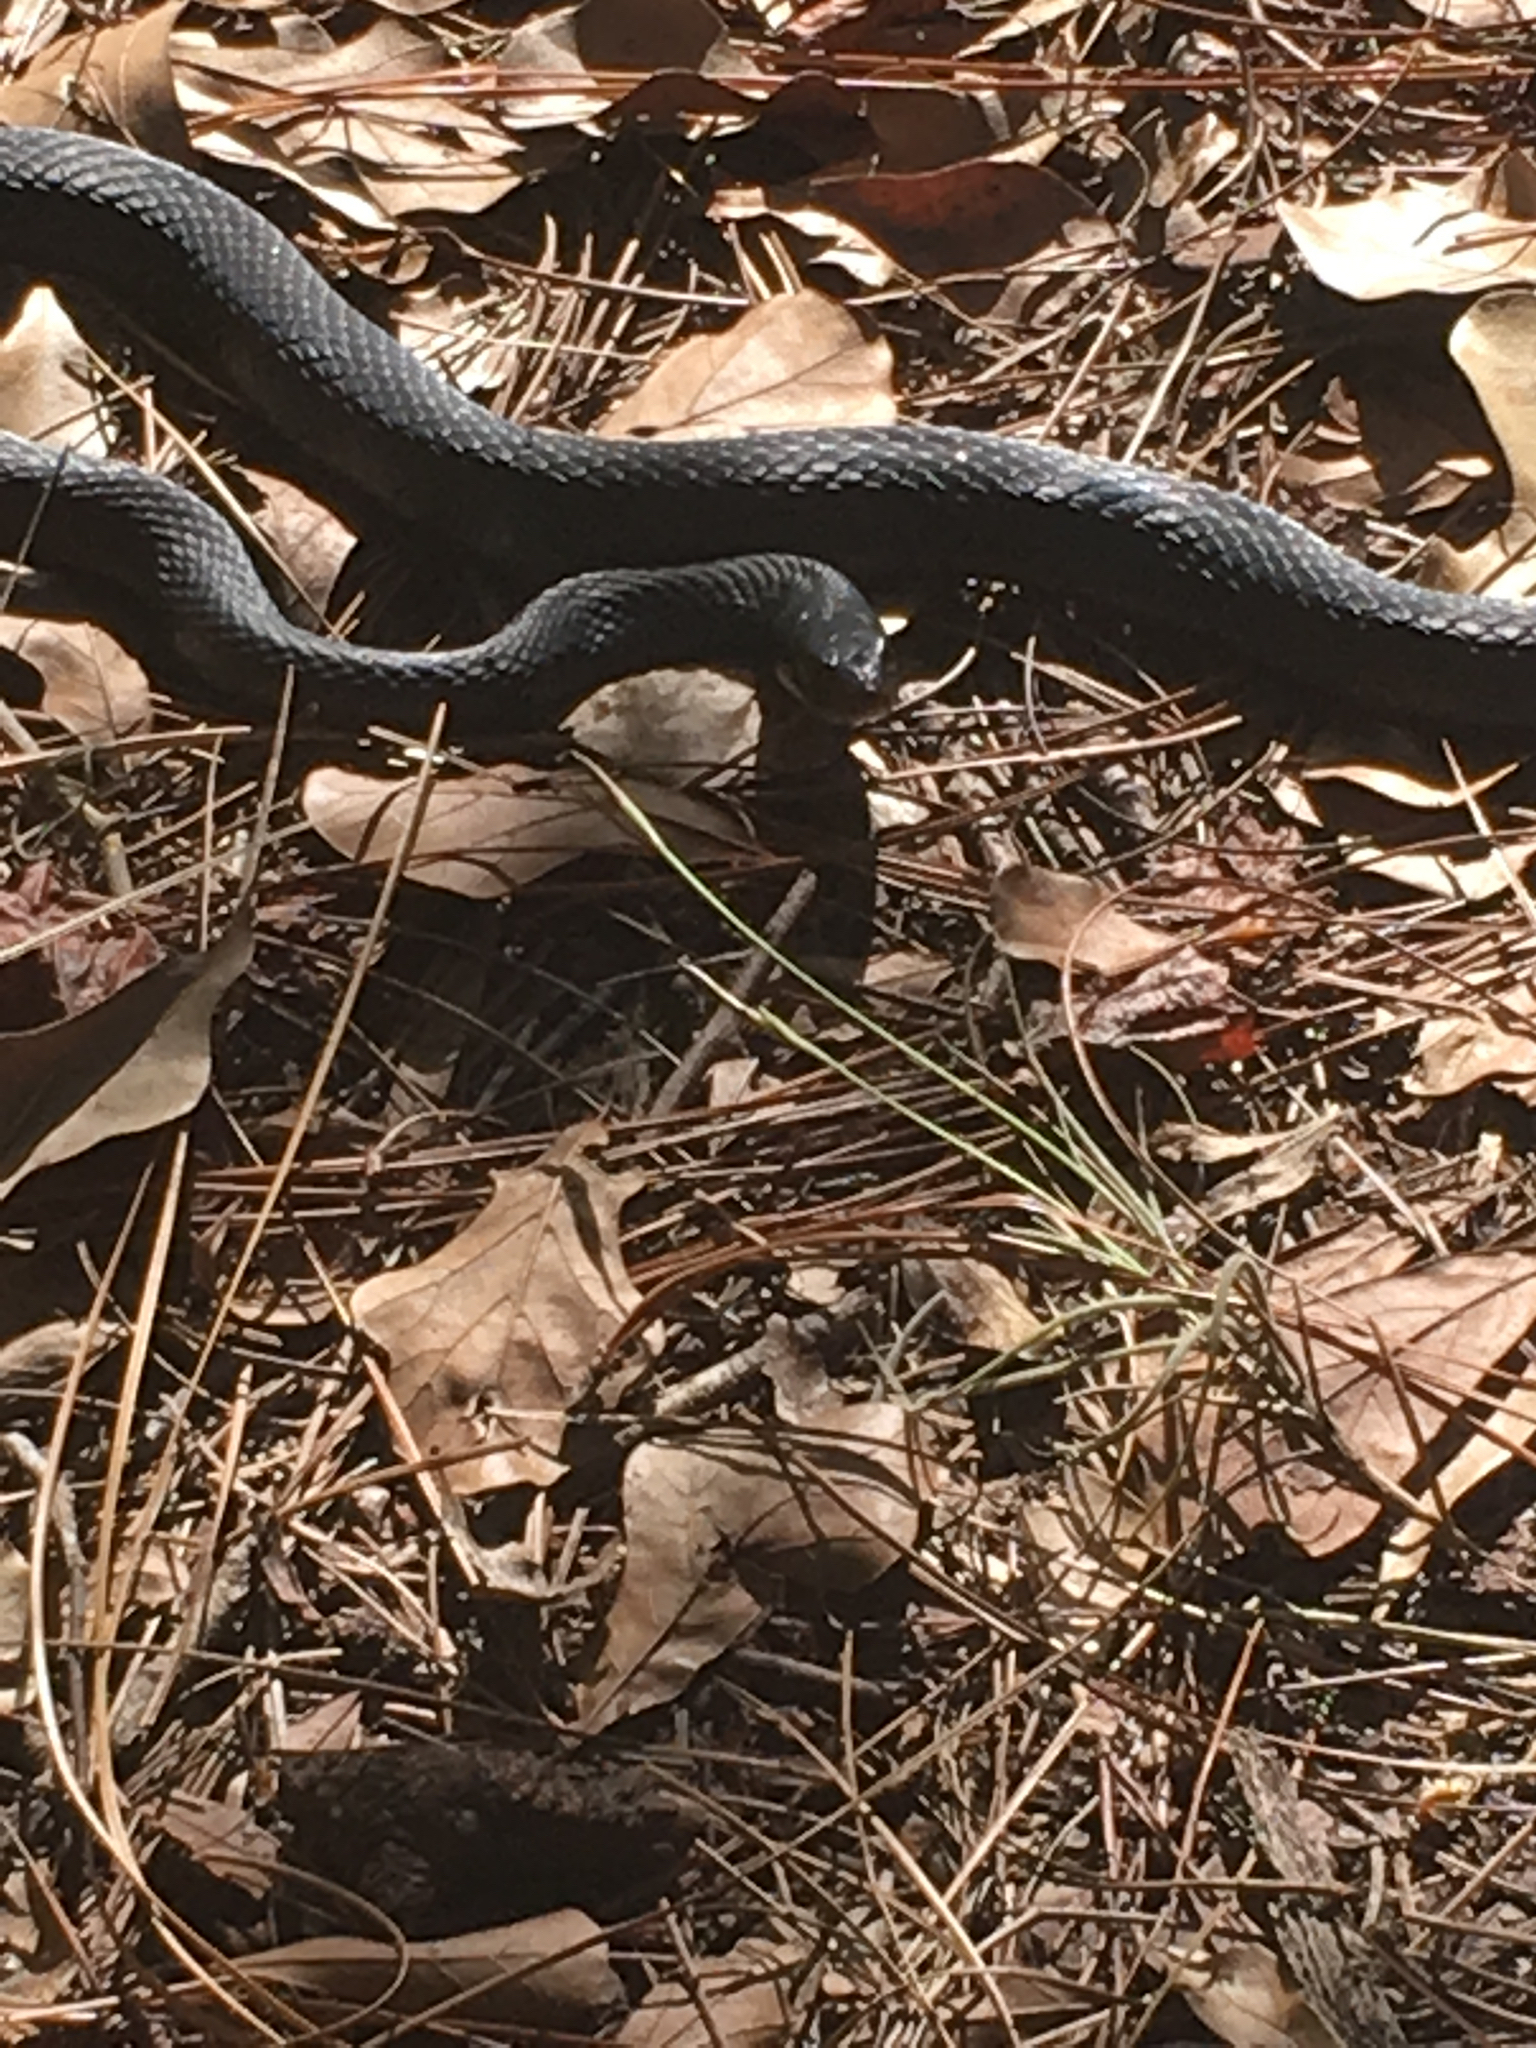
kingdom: Animalia
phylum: Chordata
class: Squamata
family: Colubridae
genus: Coluber
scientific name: Coluber constrictor
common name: Eastern racer
